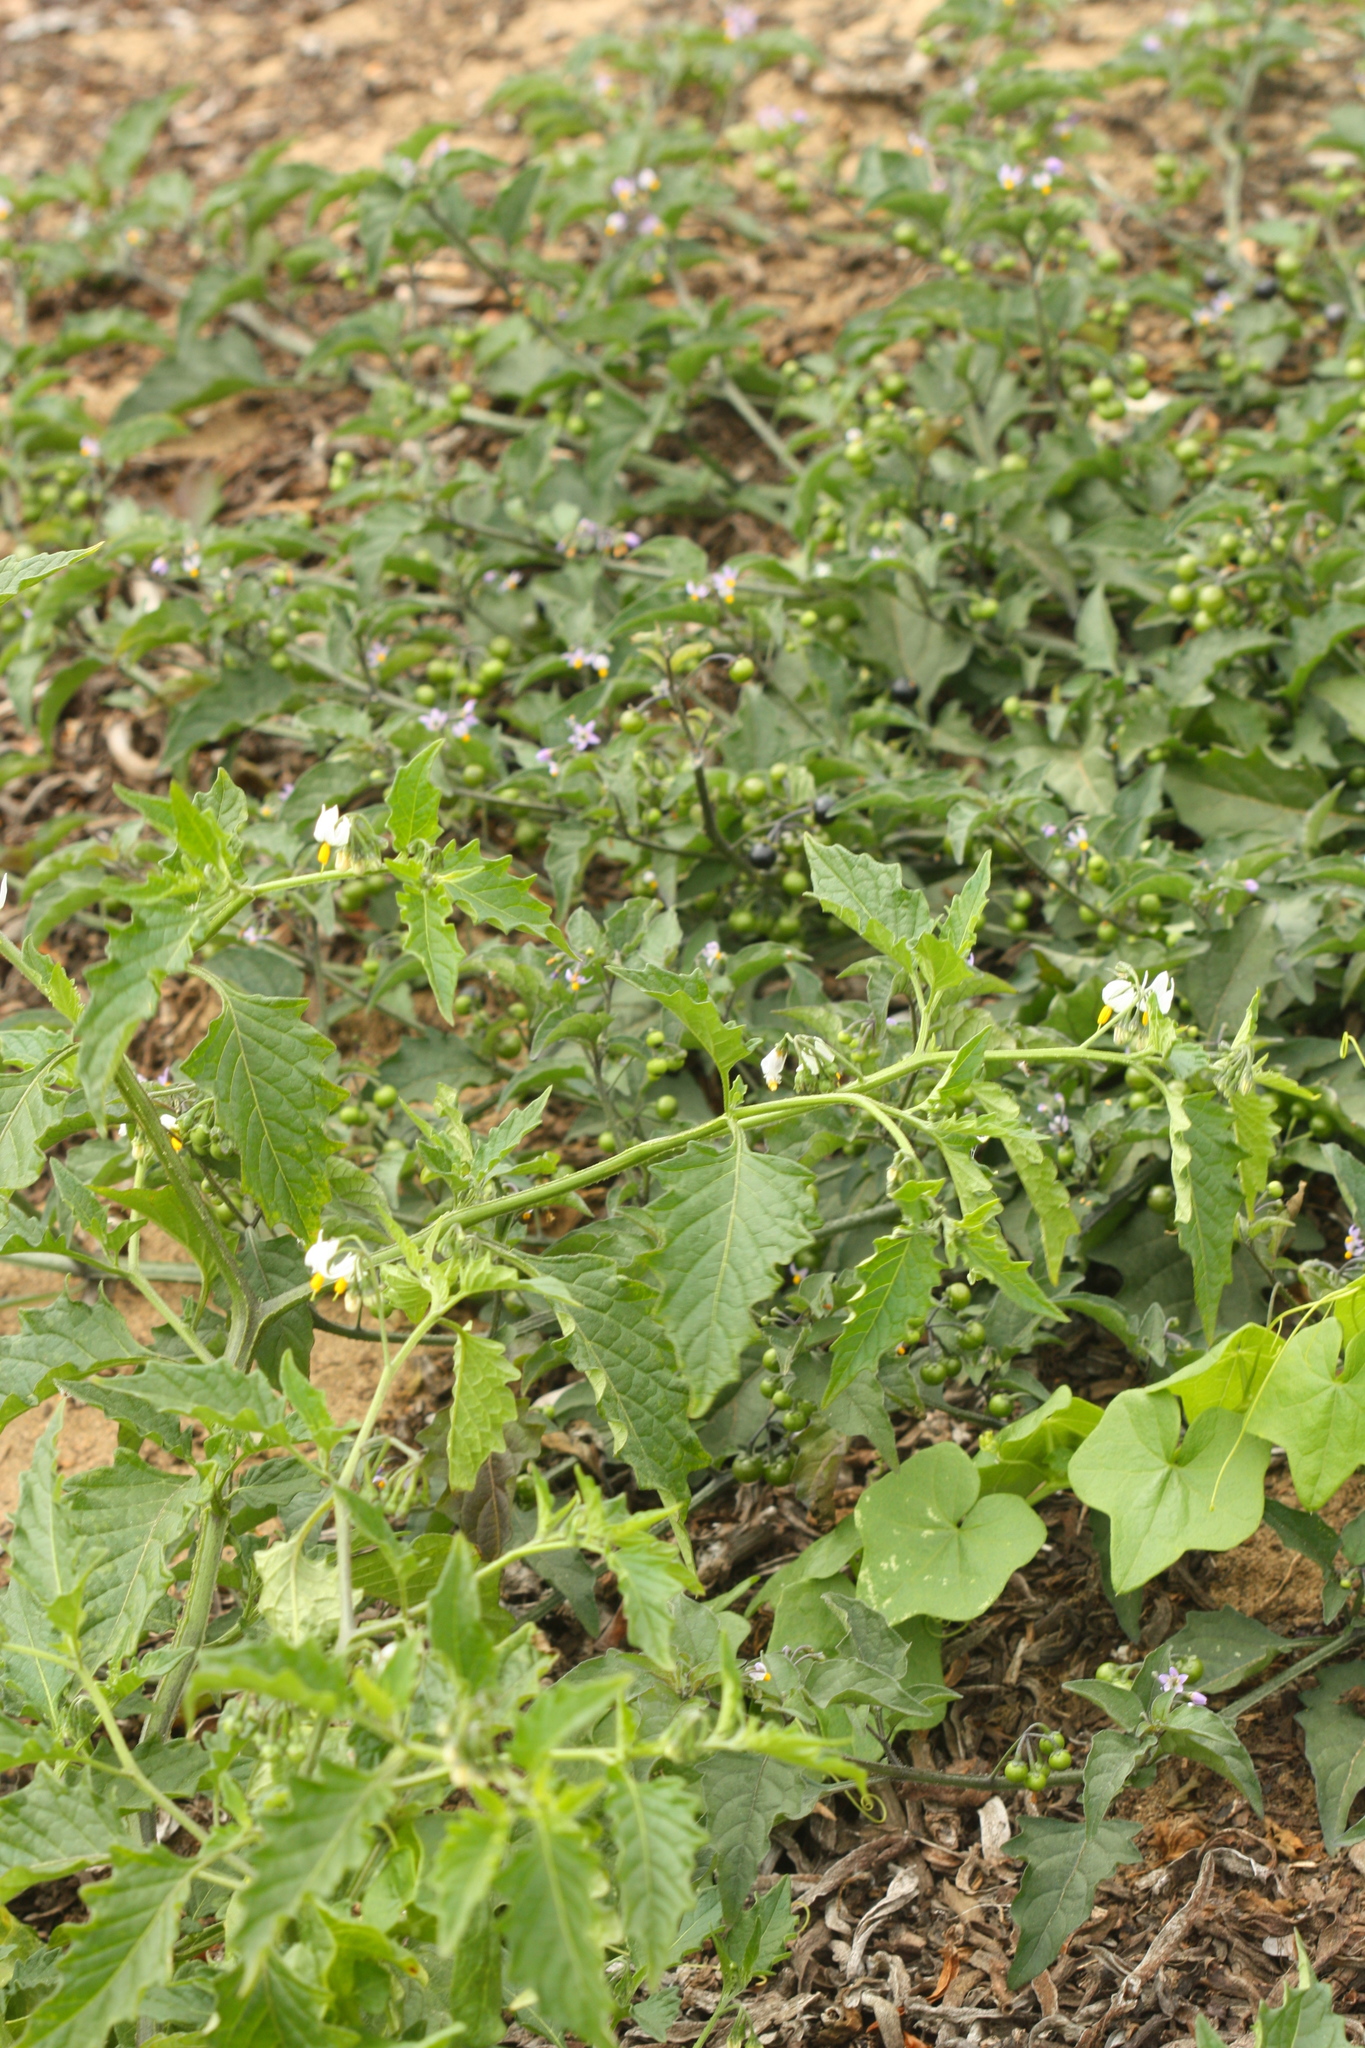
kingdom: Plantae
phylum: Tracheophyta
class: Magnoliopsida
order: Solanales
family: Solanaceae
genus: Solanum
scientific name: Solanum americanum
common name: American black nightshade
